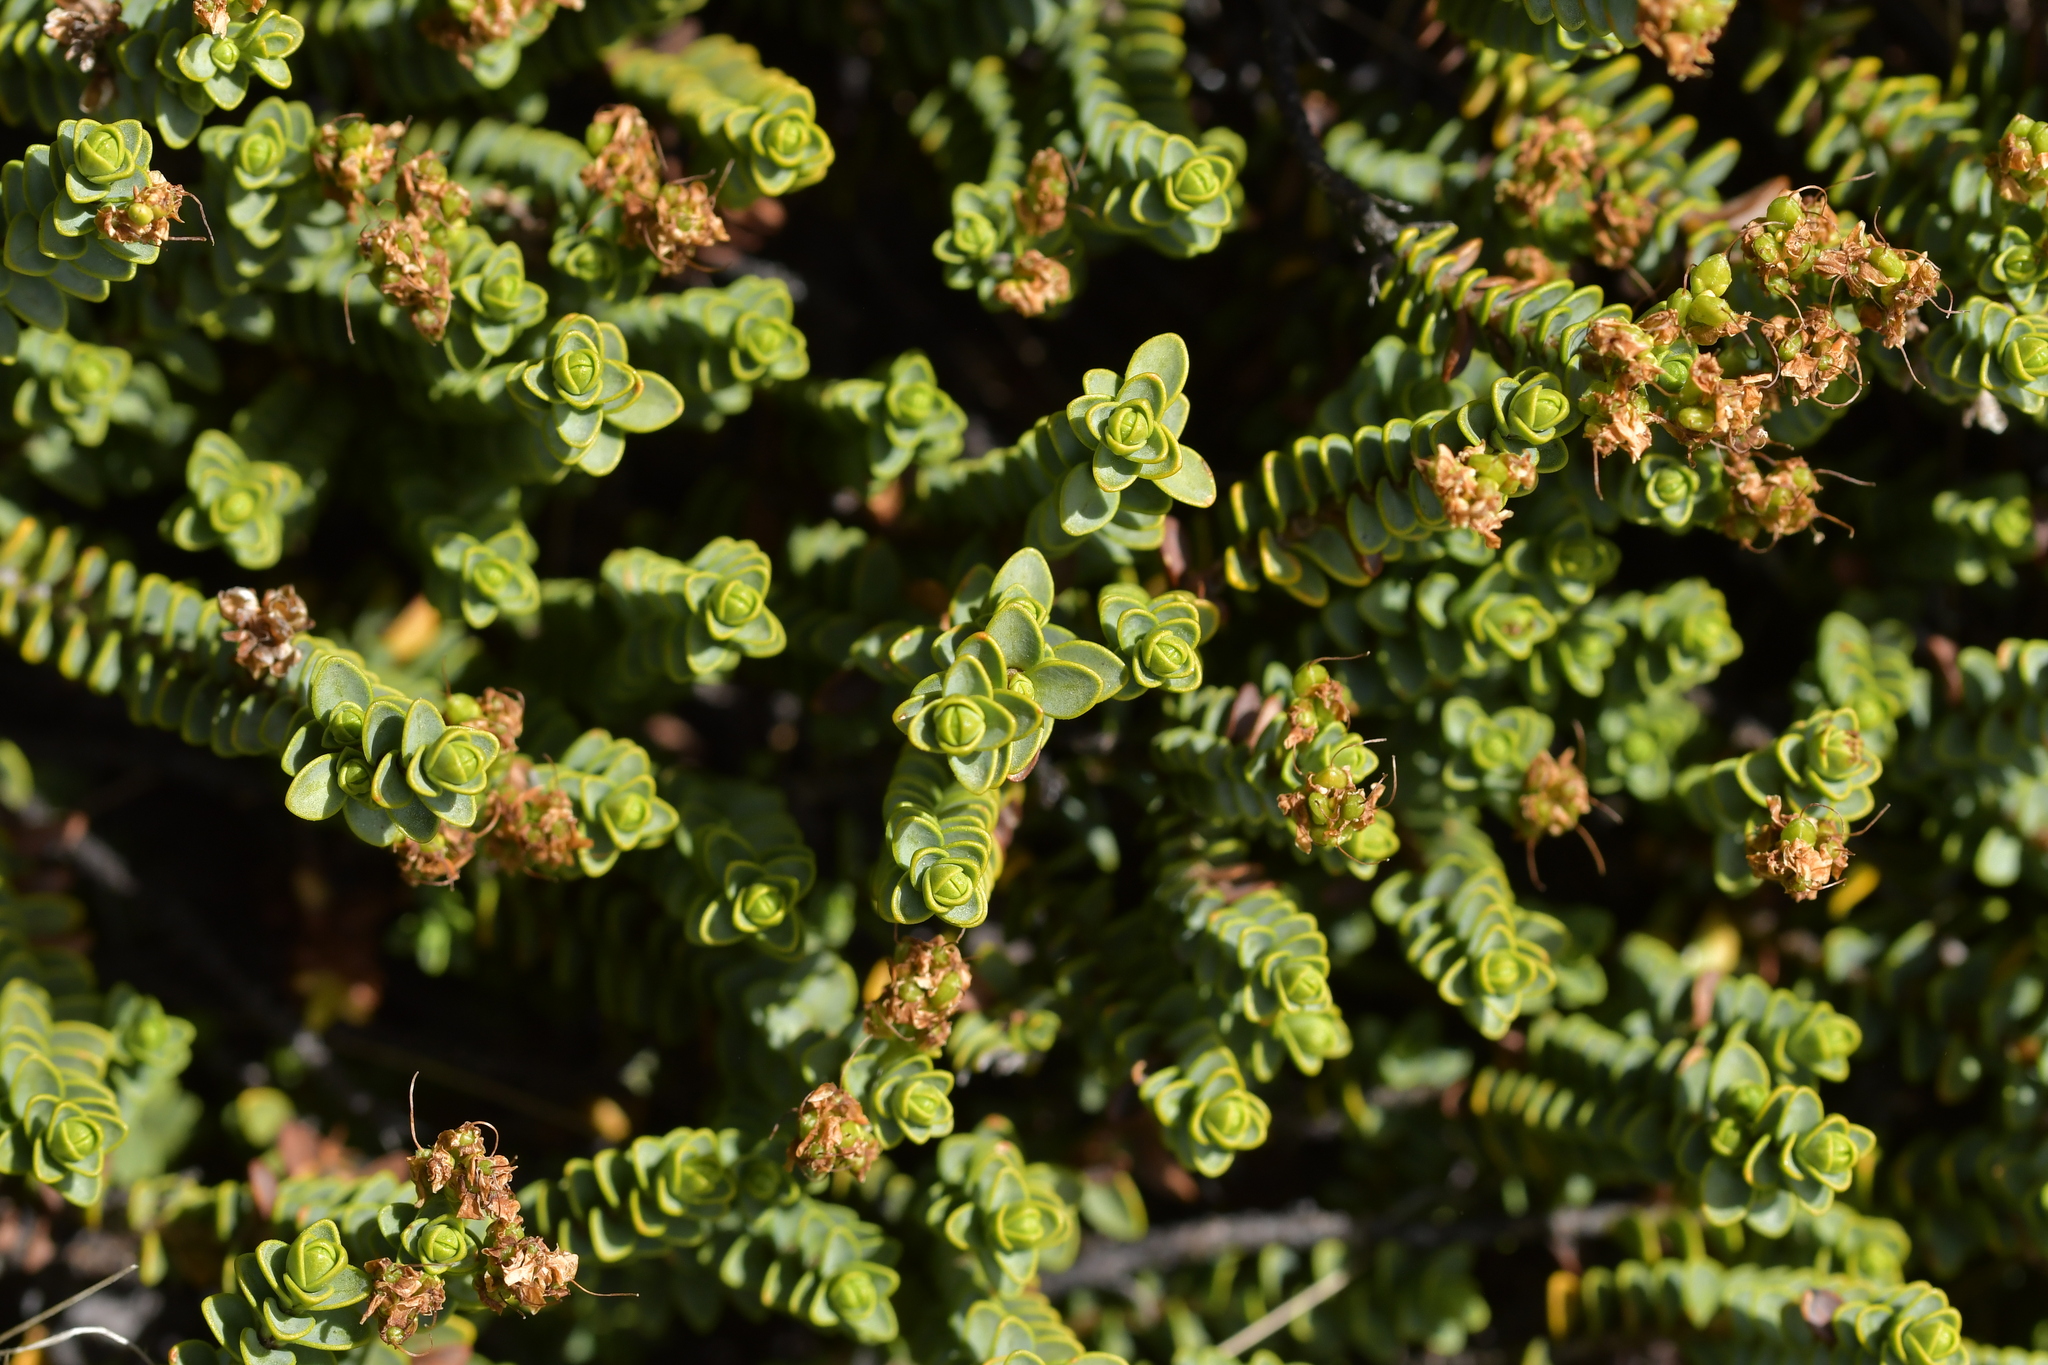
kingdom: Plantae
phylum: Tracheophyta
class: Magnoliopsida
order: Lamiales
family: Plantaginaceae
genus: Veronica
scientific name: Veronica buchananii
